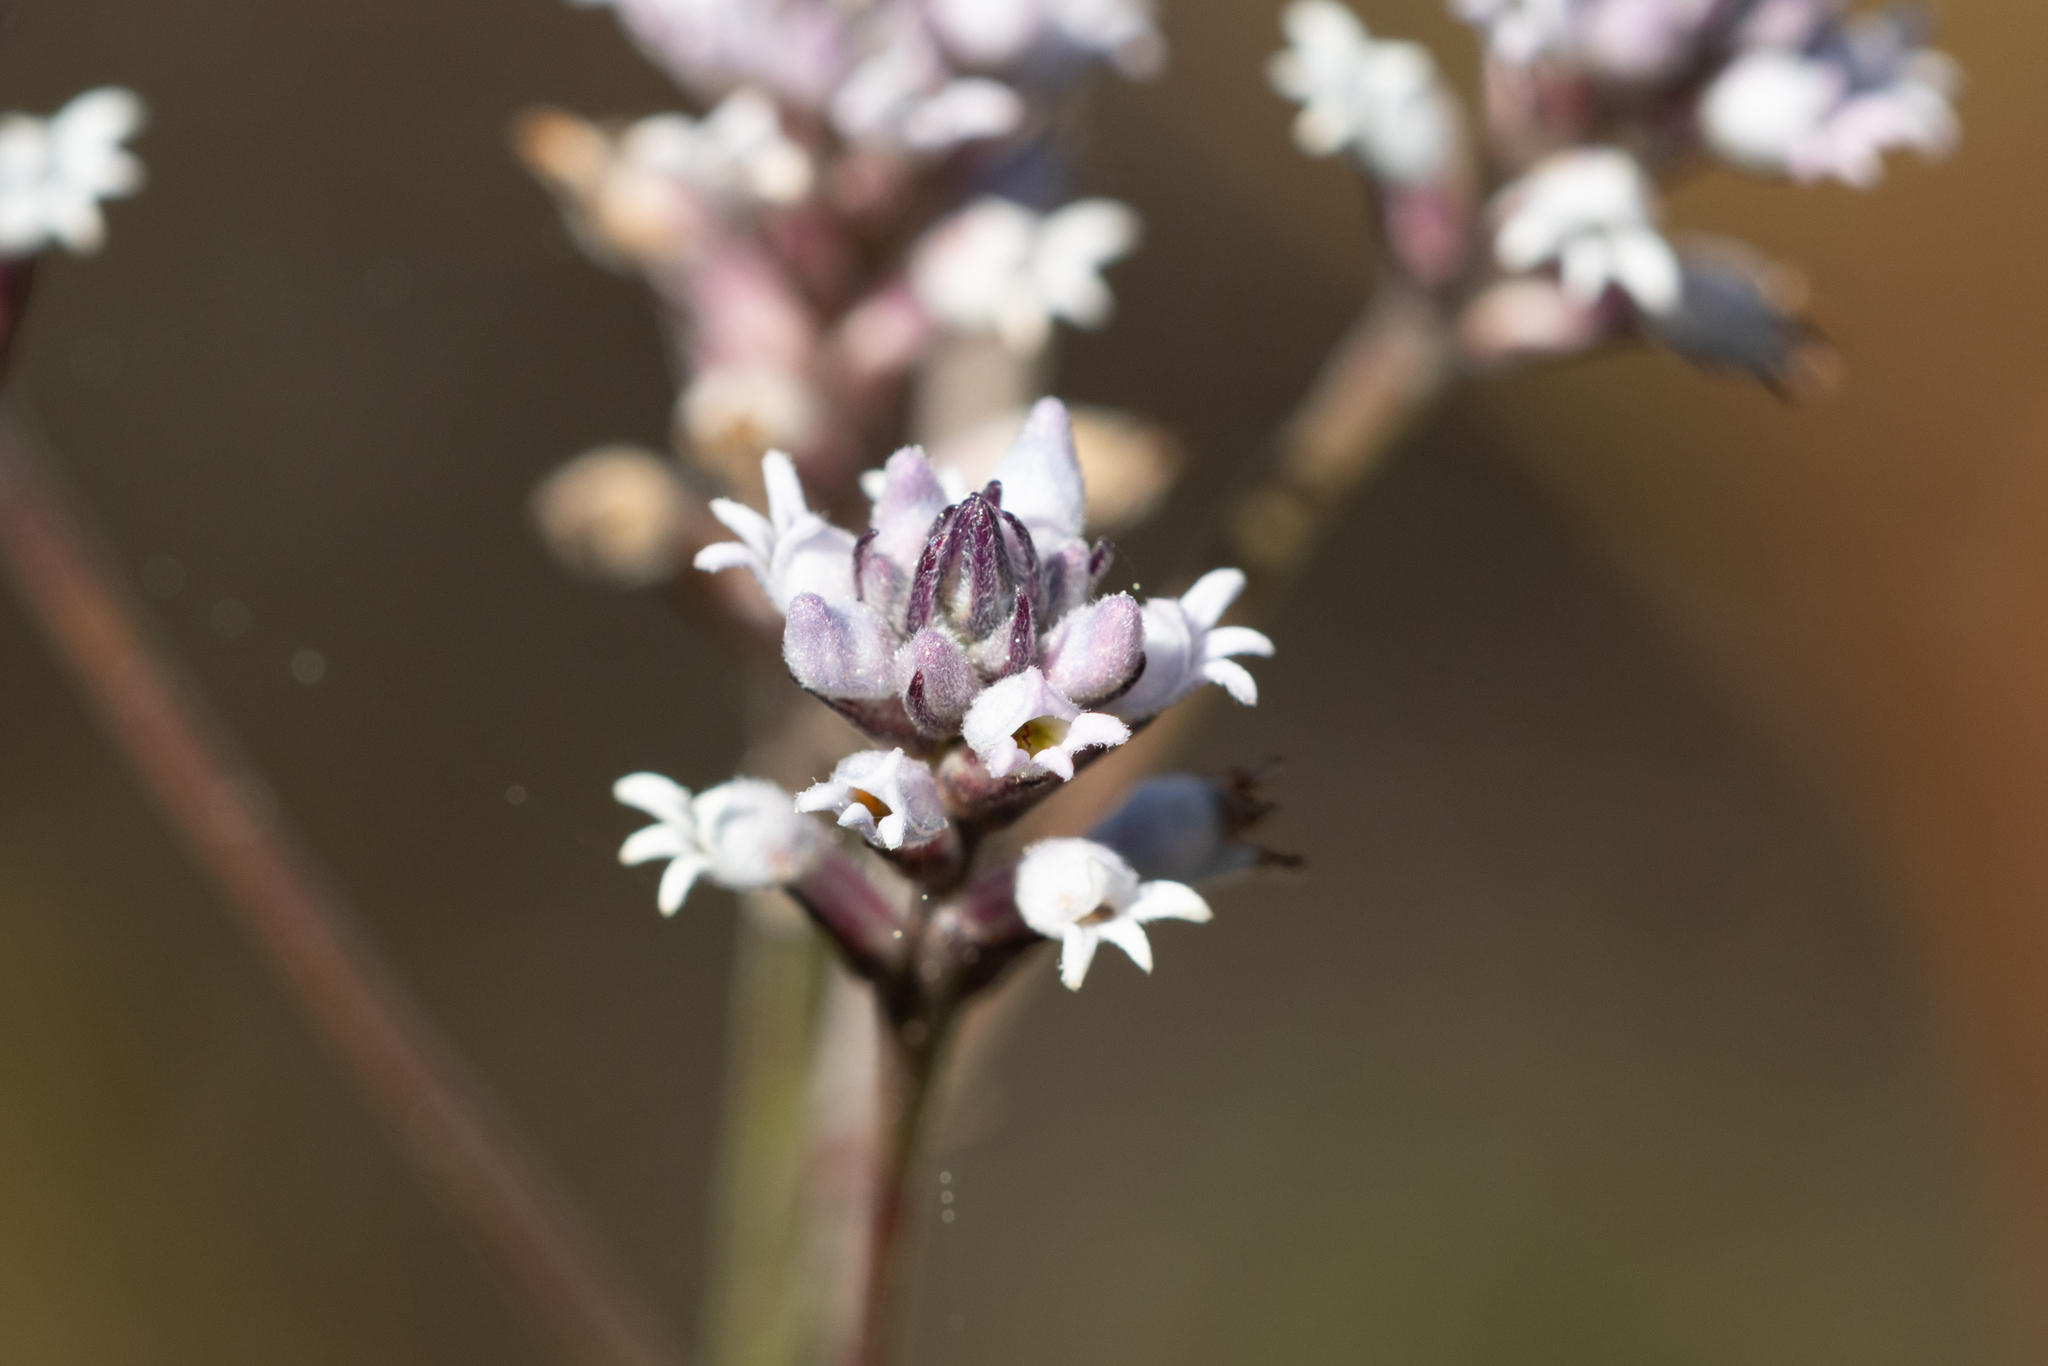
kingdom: Plantae
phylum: Tracheophyta
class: Magnoliopsida
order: Proteales
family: Proteaceae
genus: Conospermum
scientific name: Conospermum patens
